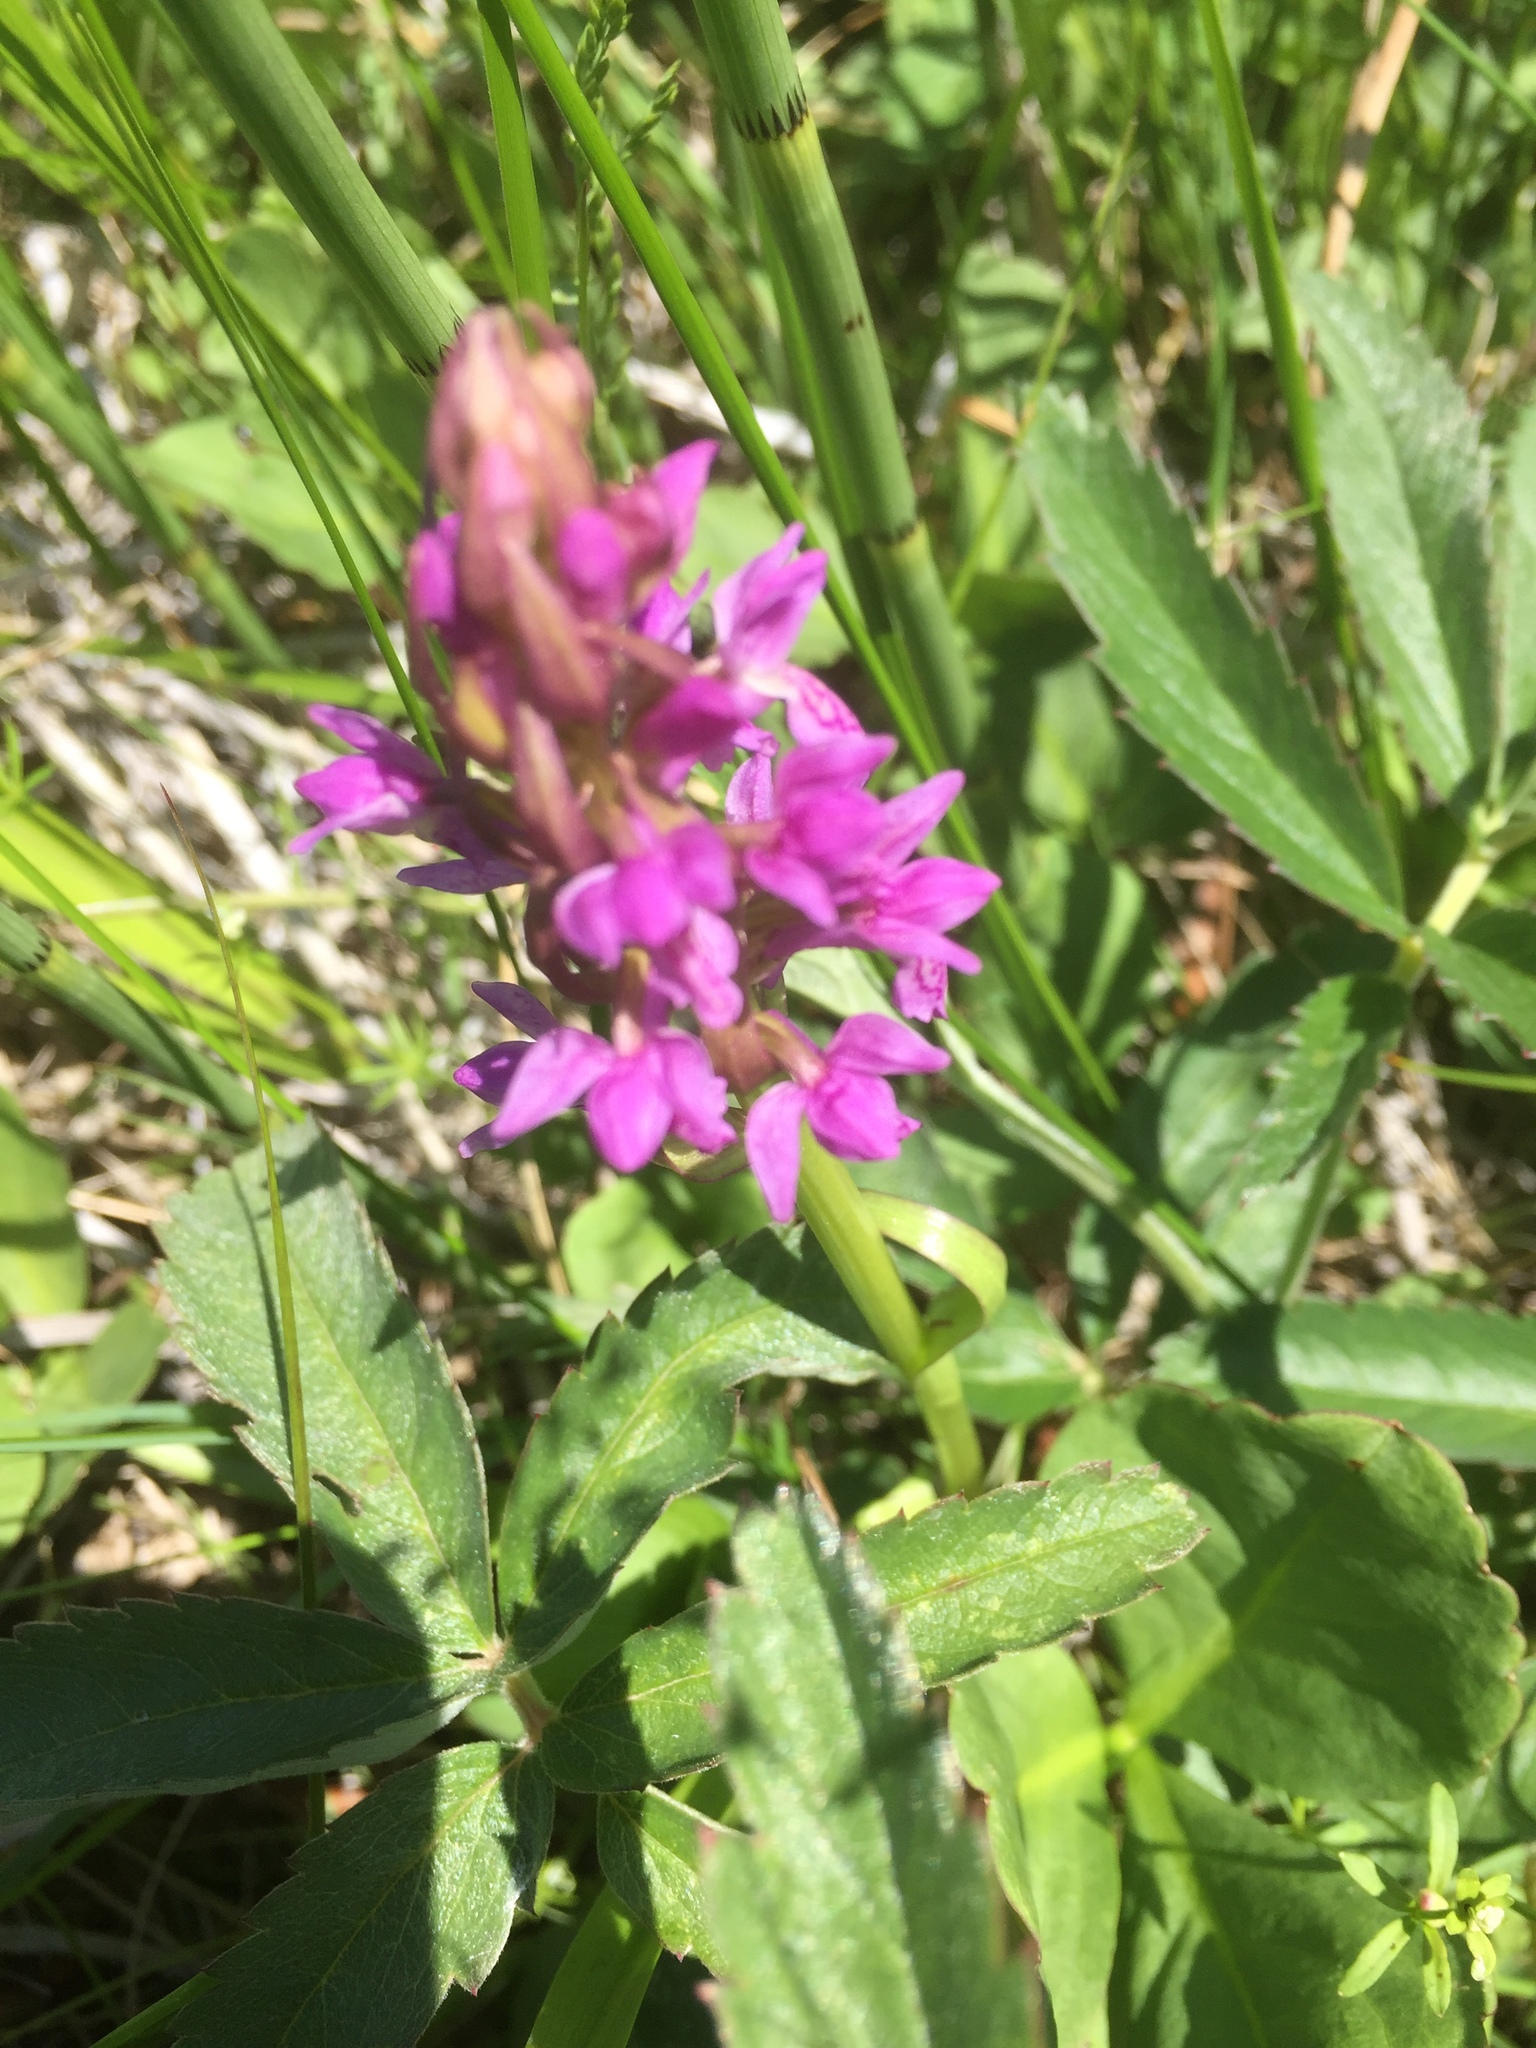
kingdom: Plantae
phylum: Tracheophyta
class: Liliopsida
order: Asparagales
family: Orchidaceae
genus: Dactylorhiza
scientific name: Dactylorhiza incarnata
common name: Early marsh-orchid
